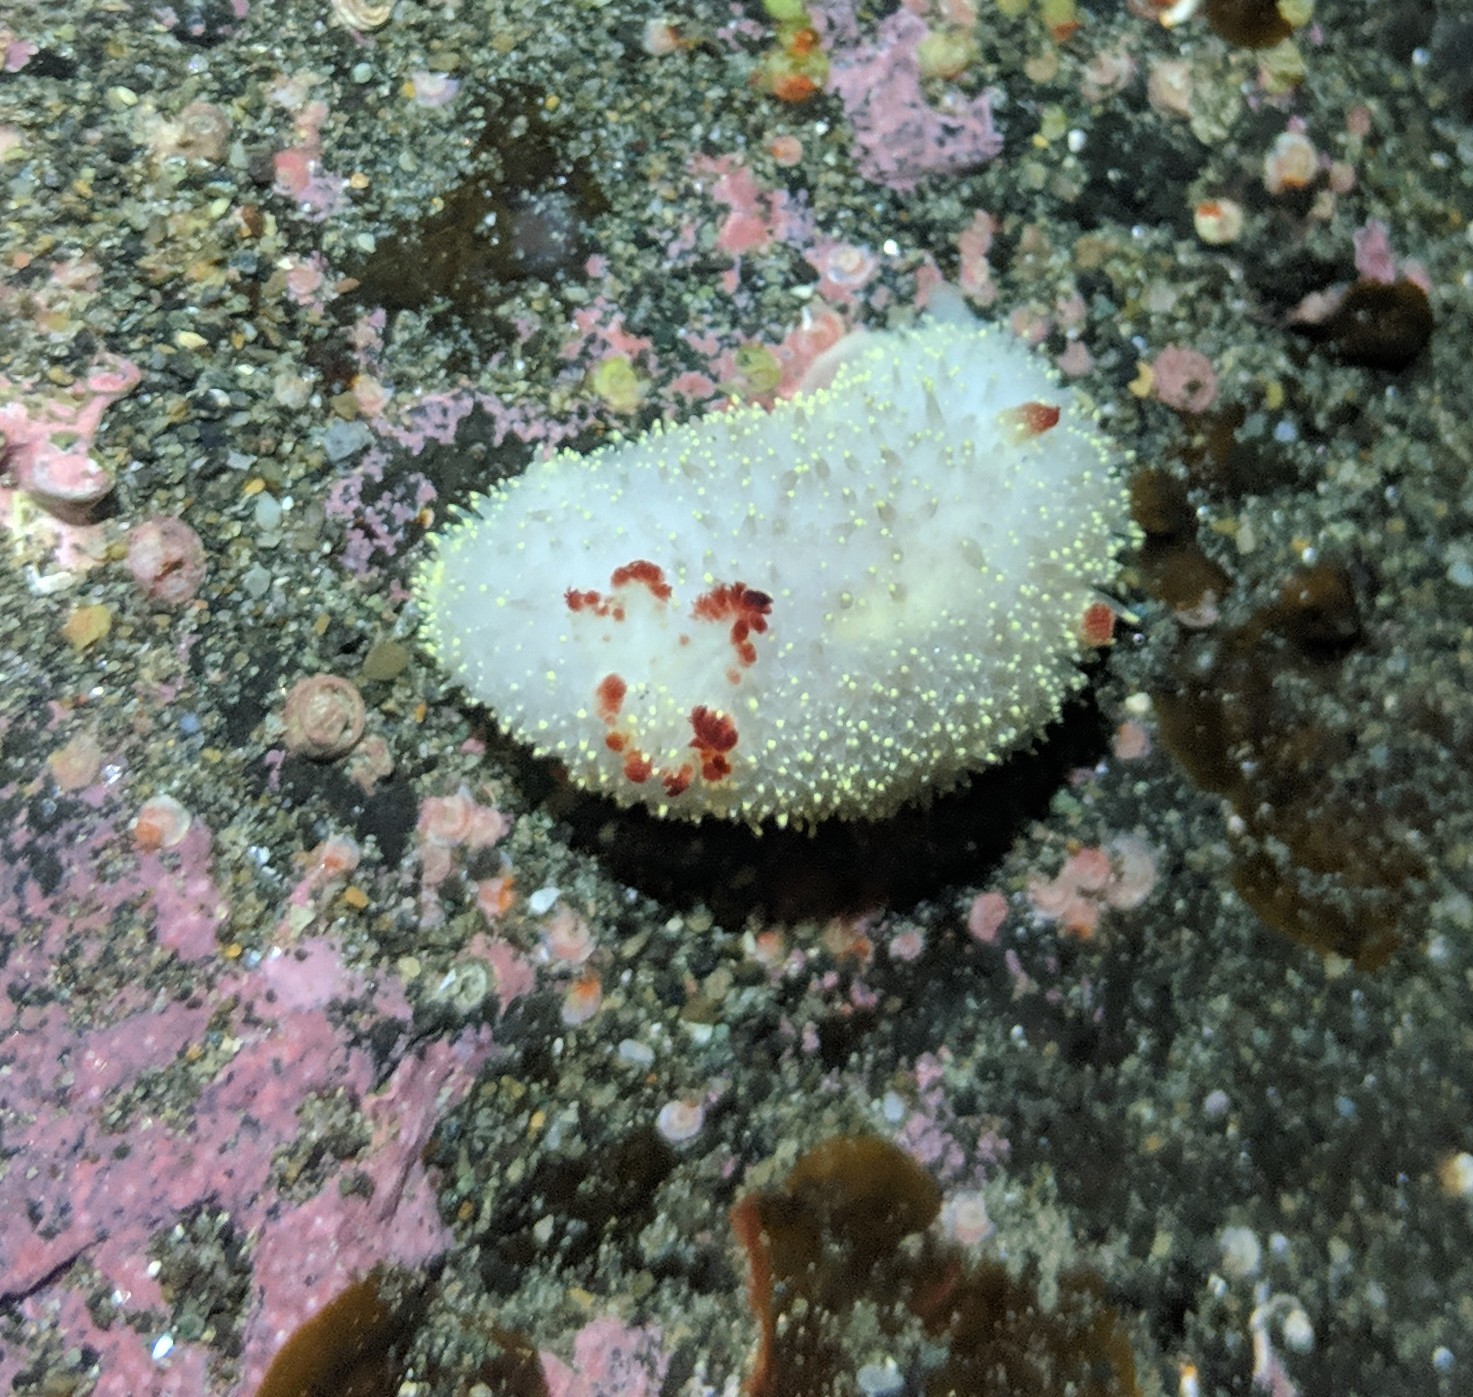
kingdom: Animalia
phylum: Mollusca
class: Gastropoda
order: Nudibranchia
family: Onchidorididae
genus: Acanthodoris
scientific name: Acanthodoris nanaimoensis
